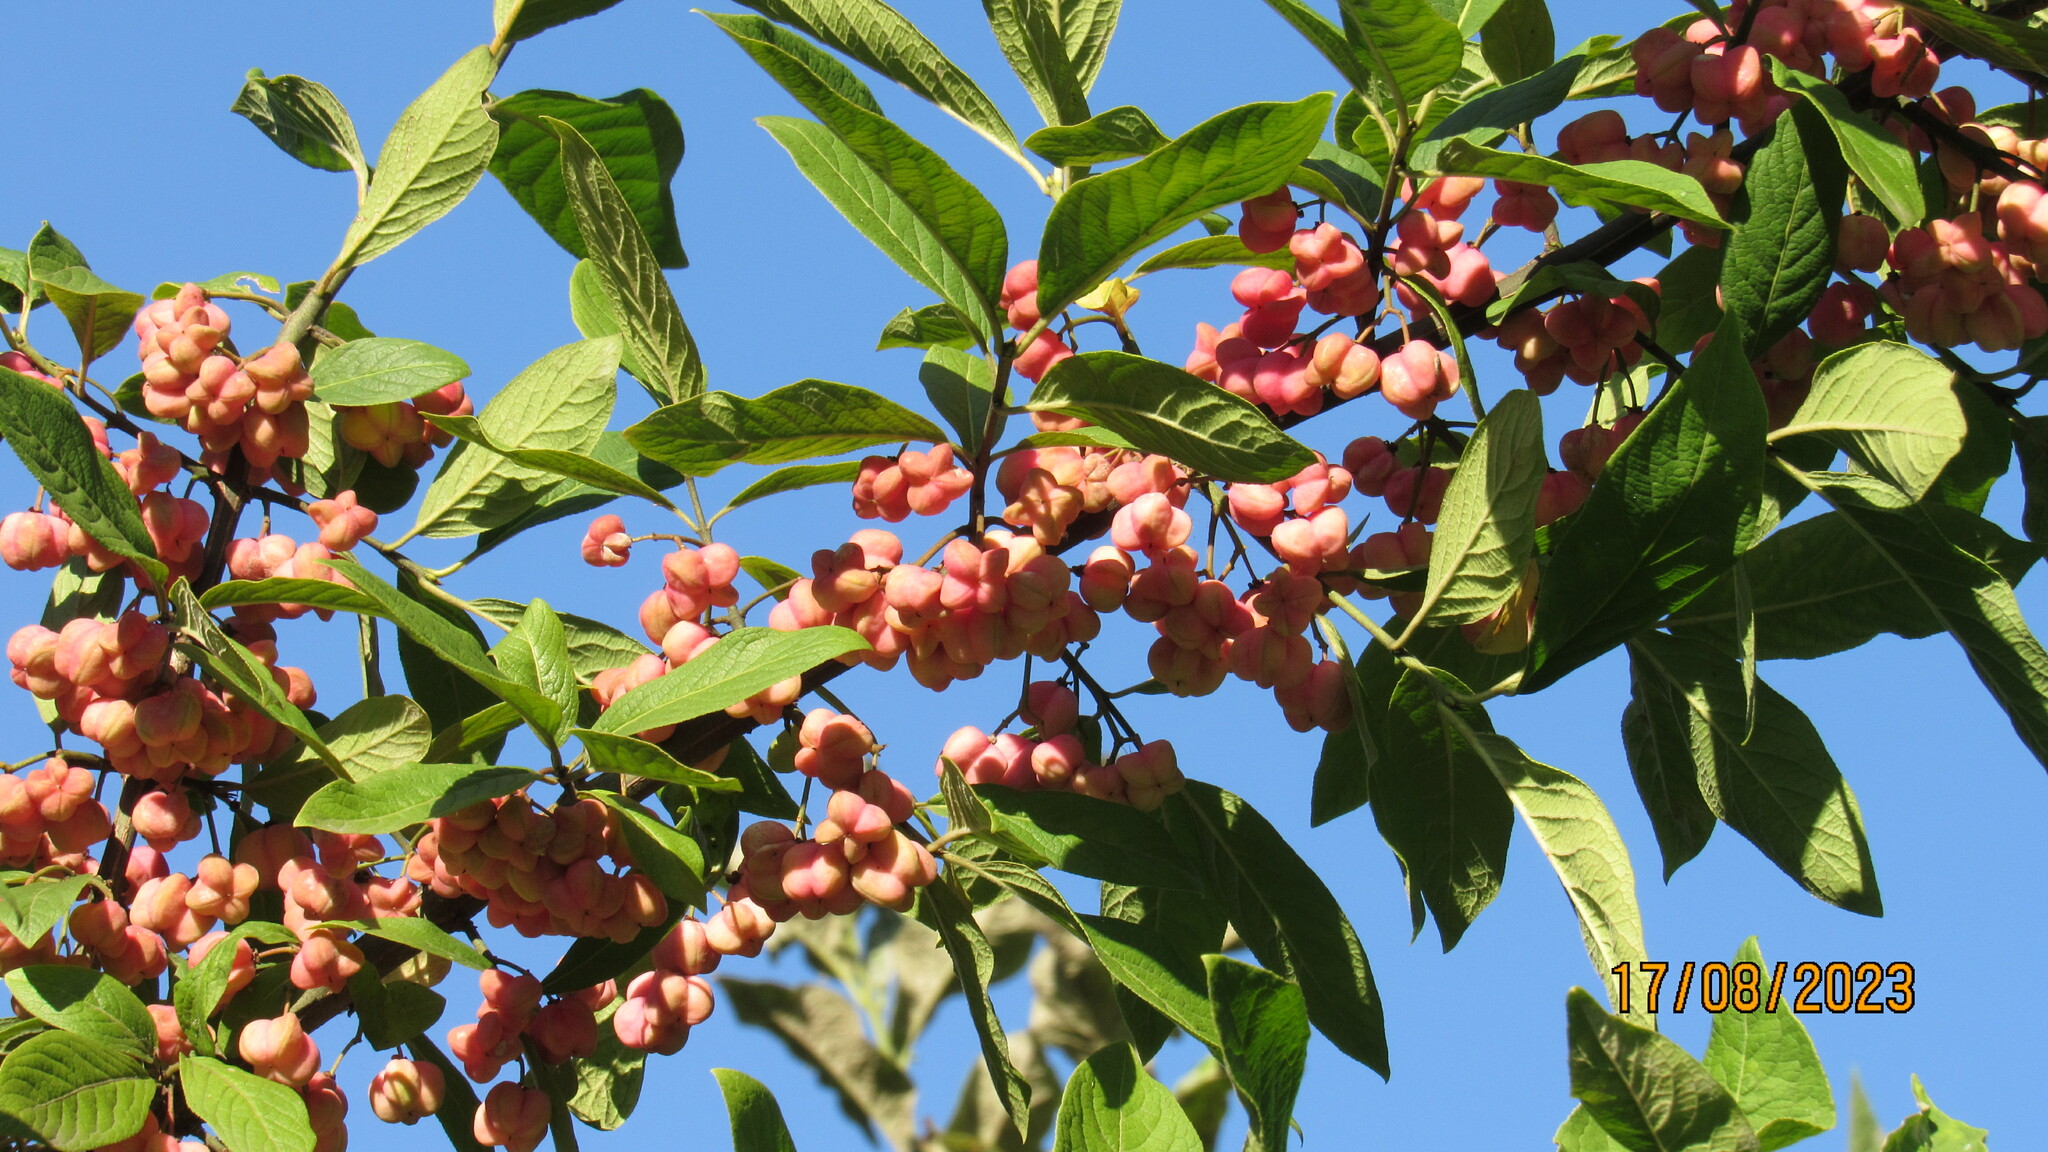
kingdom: Plantae
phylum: Tracheophyta
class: Magnoliopsida
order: Celastrales
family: Celastraceae
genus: Euonymus
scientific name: Euonymus europaeus
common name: Spindle
